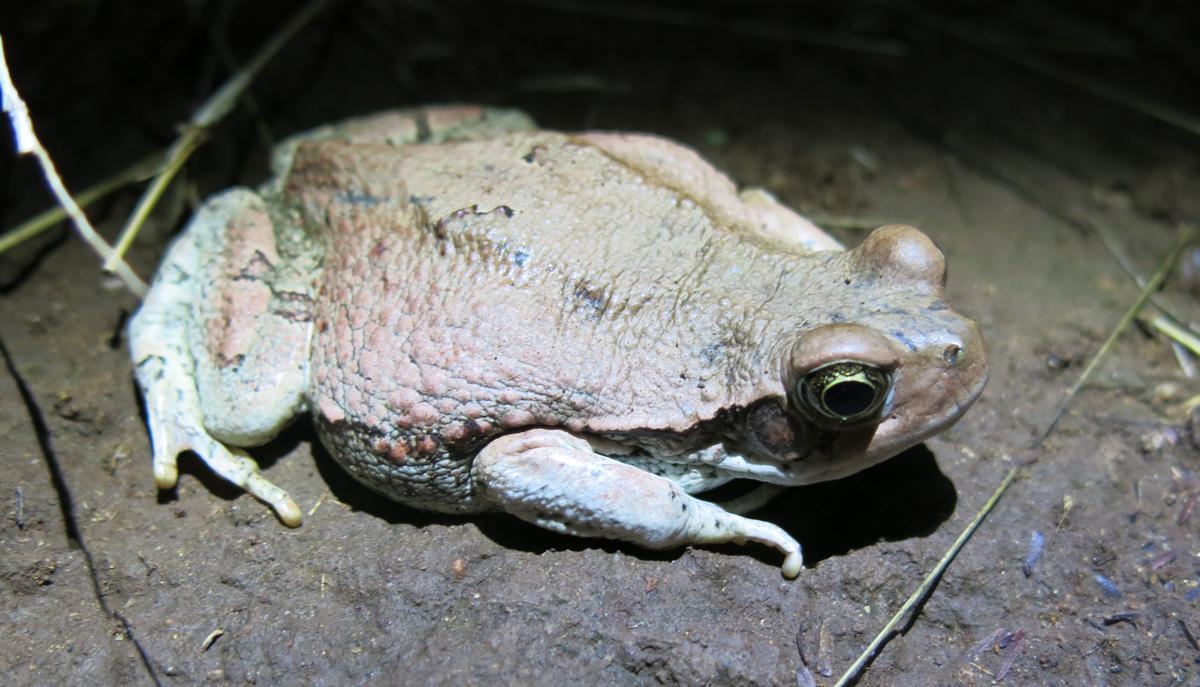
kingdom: Animalia
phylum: Chordata
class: Amphibia
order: Anura
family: Bufonidae
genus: Schismaderma
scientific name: Schismaderma carens
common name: African split-skin toad
